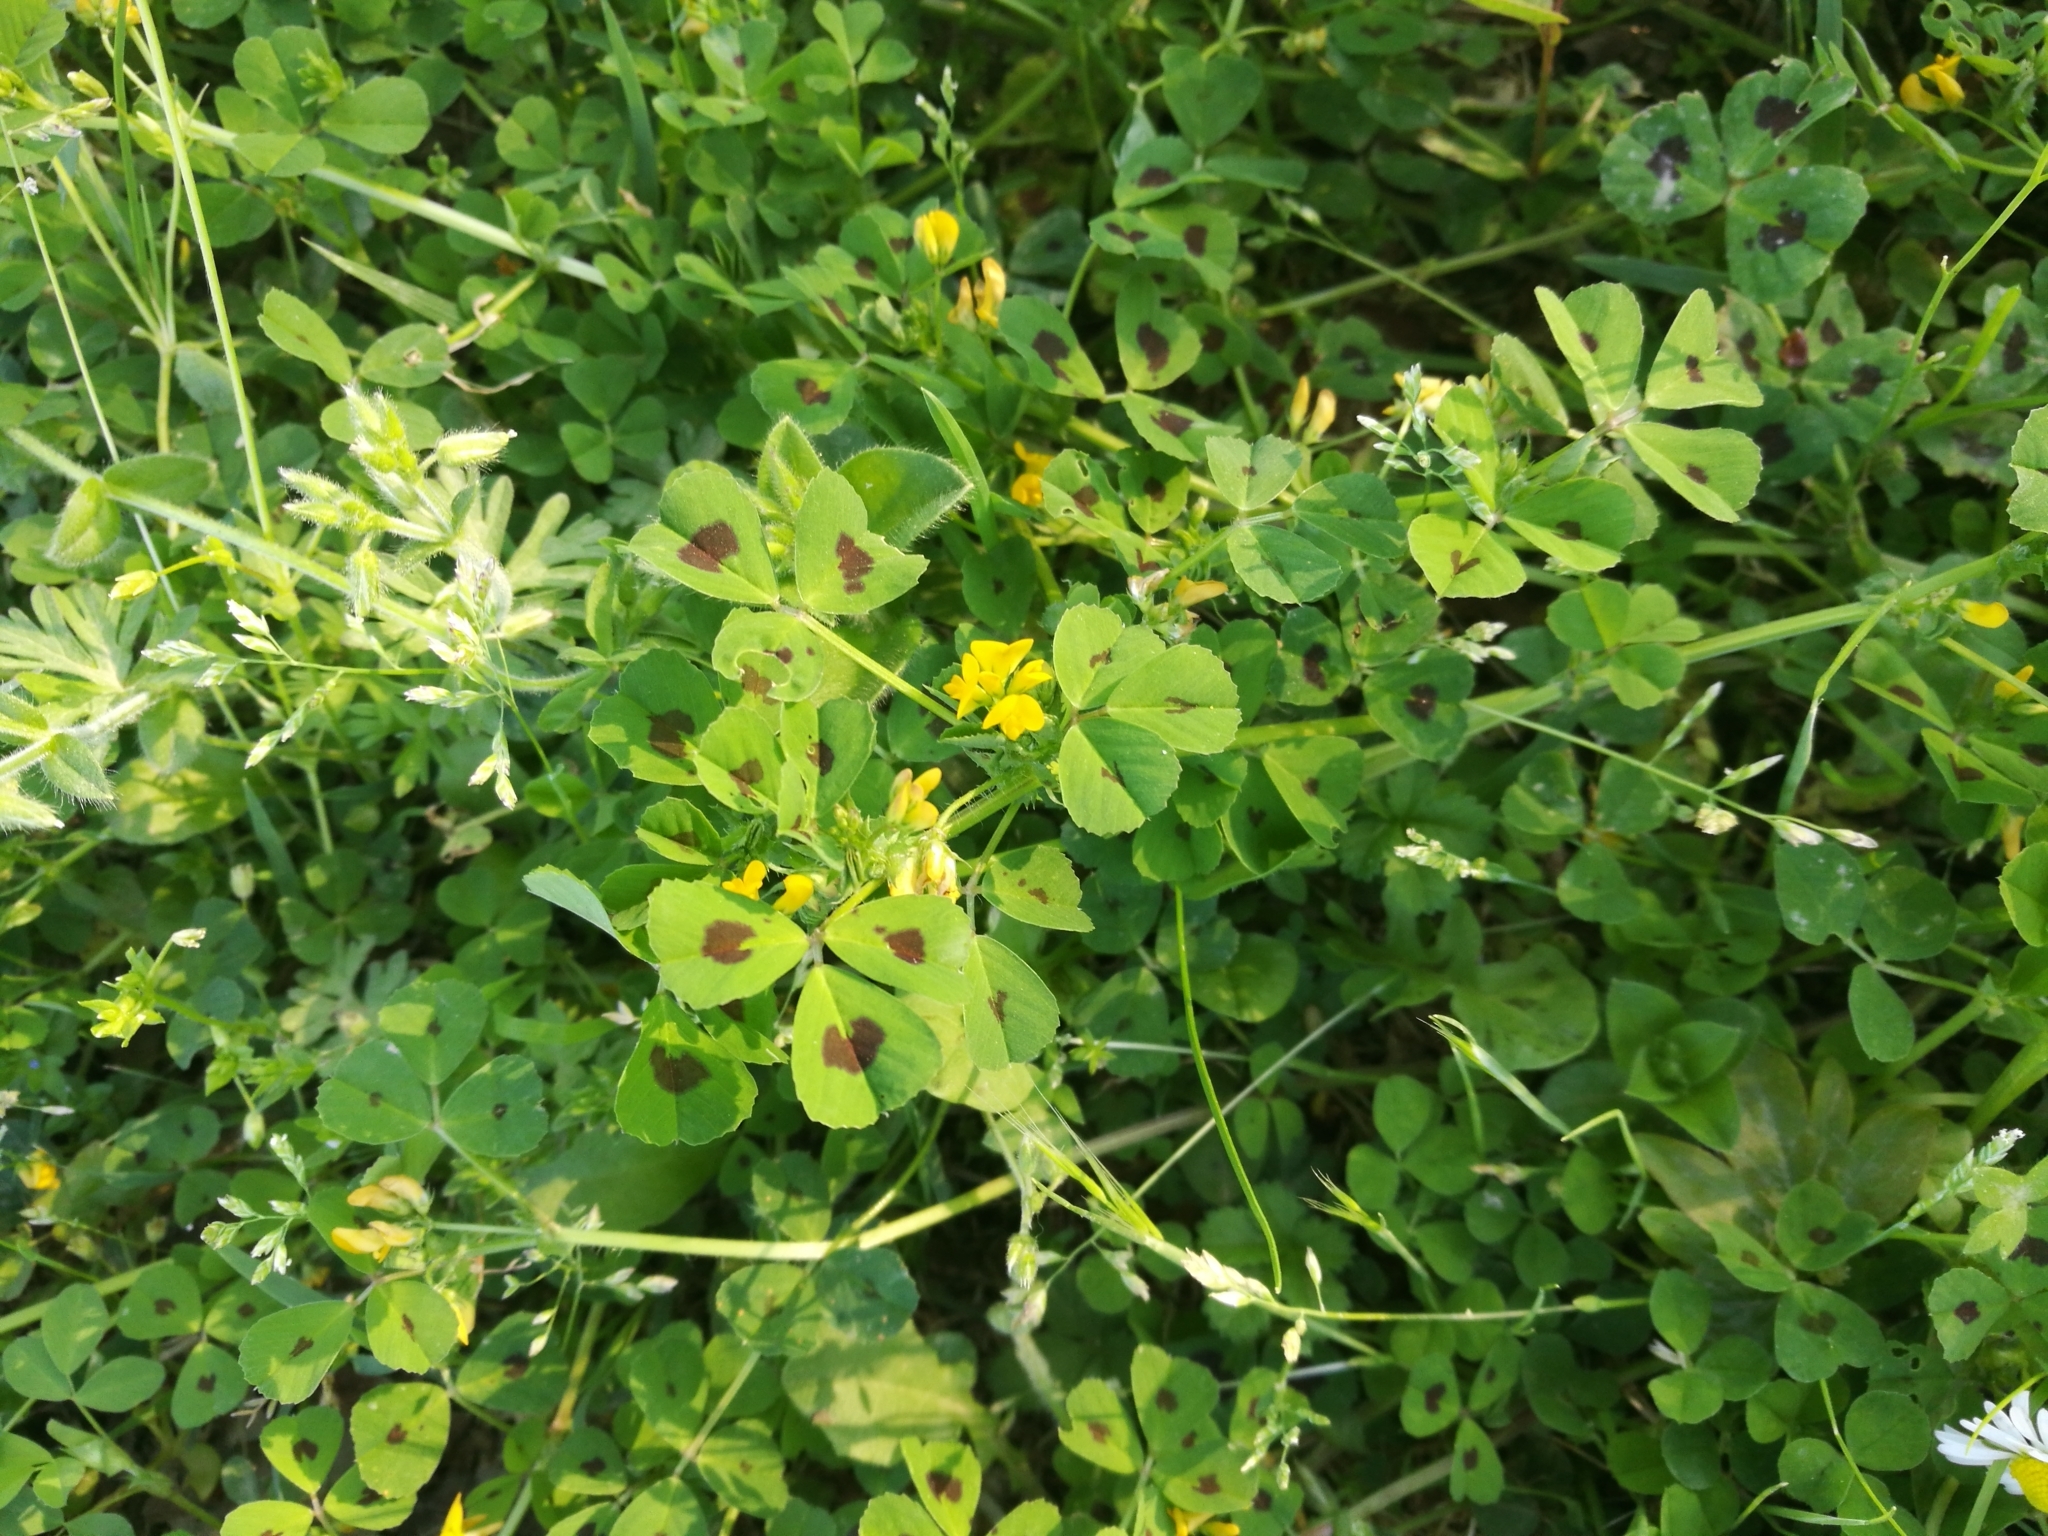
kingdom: Plantae
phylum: Tracheophyta
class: Magnoliopsida
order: Fabales
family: Fabaceae
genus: Medicago
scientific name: Medicago arabica
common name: Spotted medick
